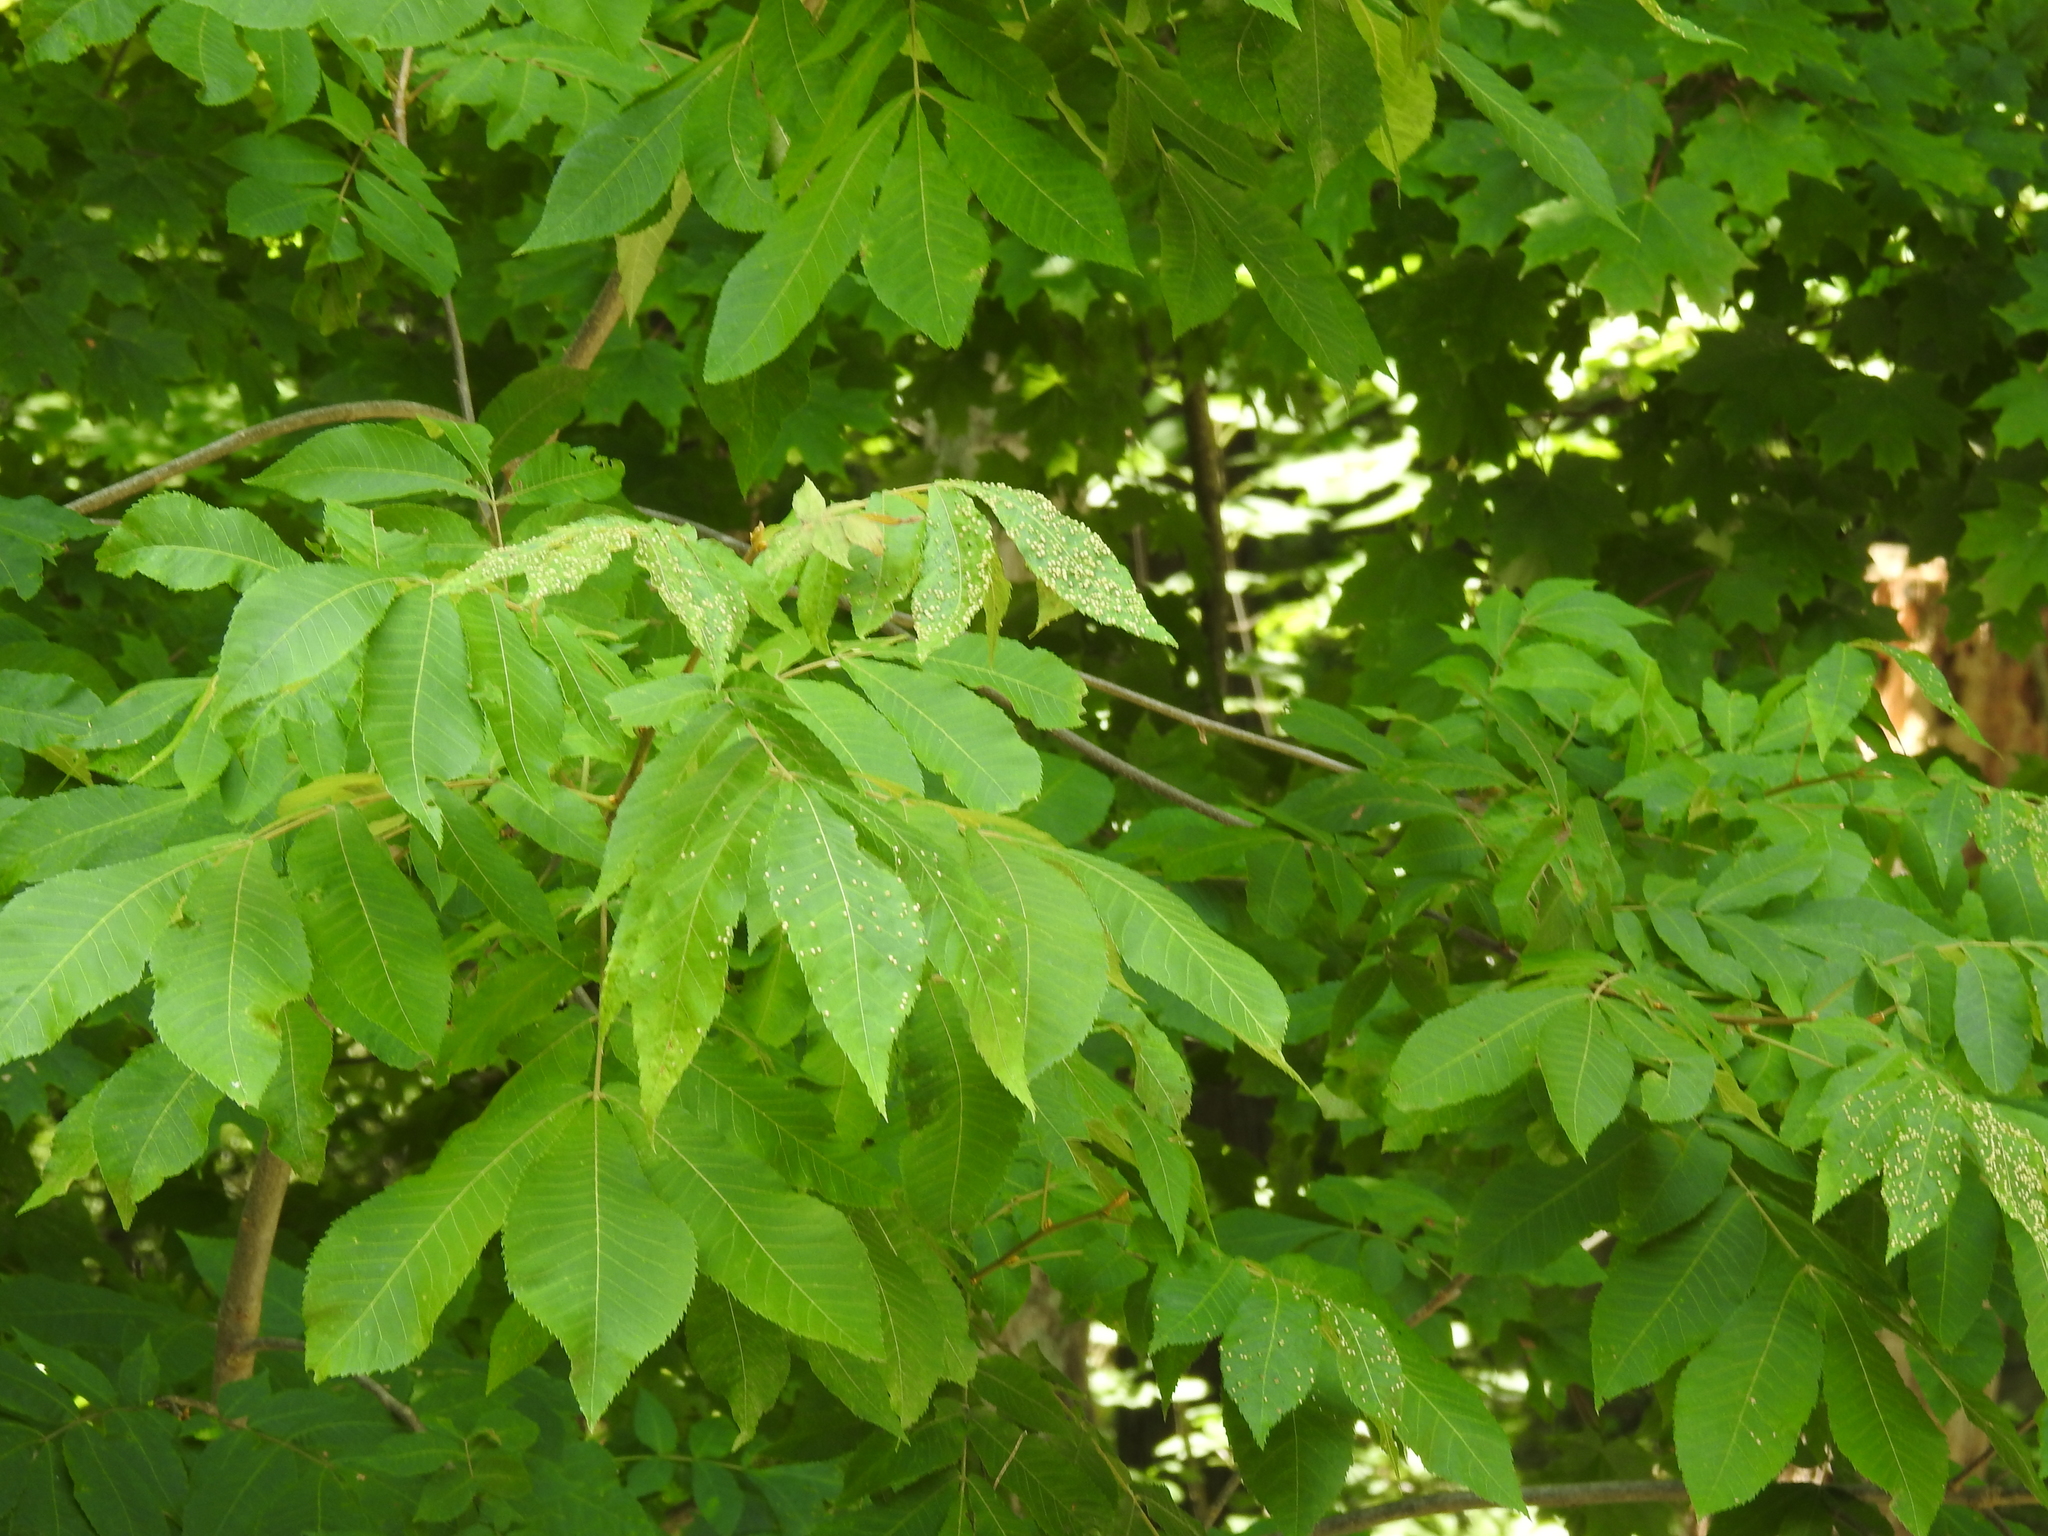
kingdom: Animalia
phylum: Arthropoda
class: Insecta
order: Hemiptera
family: Phylloxeridae
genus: Phylloxera
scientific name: Phylloxera caryae-semen
